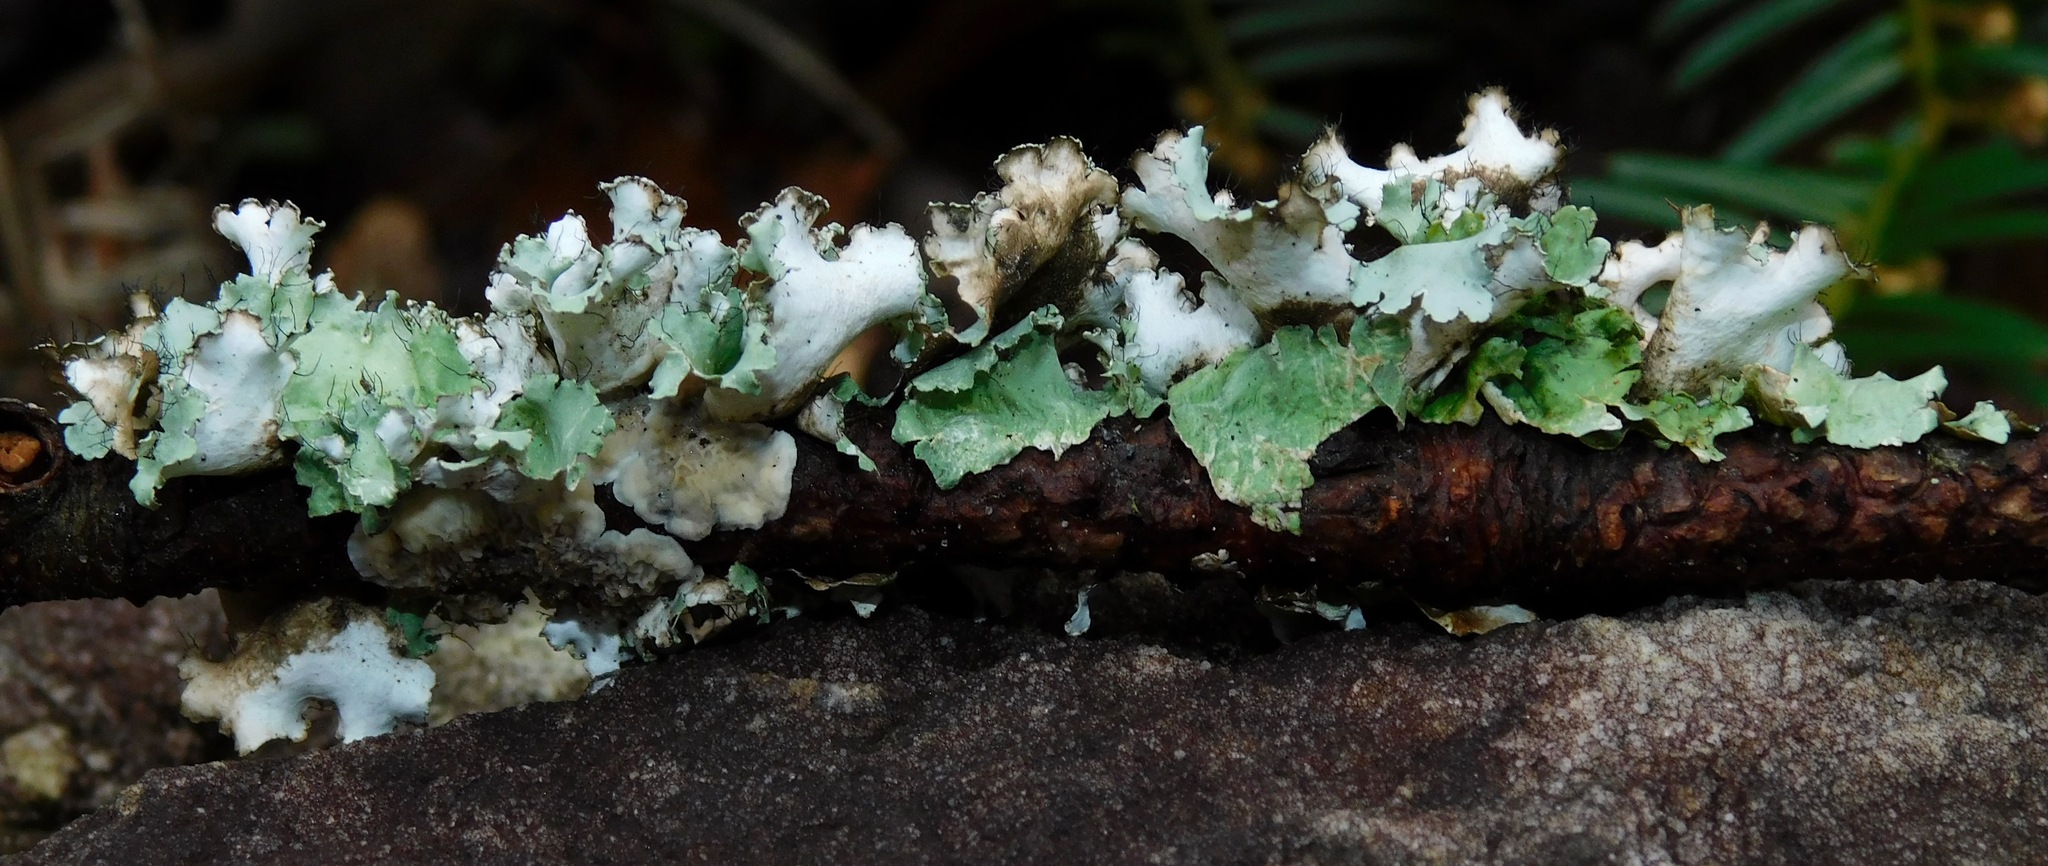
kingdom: Fungi
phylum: Ascomycota
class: Lecanoromycetes
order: Lecanorales
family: Parmeliaceae
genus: Parmotrema
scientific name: Parmotrema hypotropum
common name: Powdered ruffle lichen
